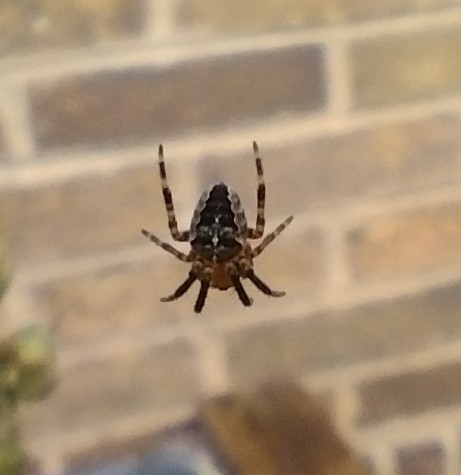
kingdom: Animalia
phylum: Arthropoda
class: Arachnida
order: Araneae
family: Araneidae
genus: Araneus
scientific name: Araneus diadematus
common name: Cross orbweaver
